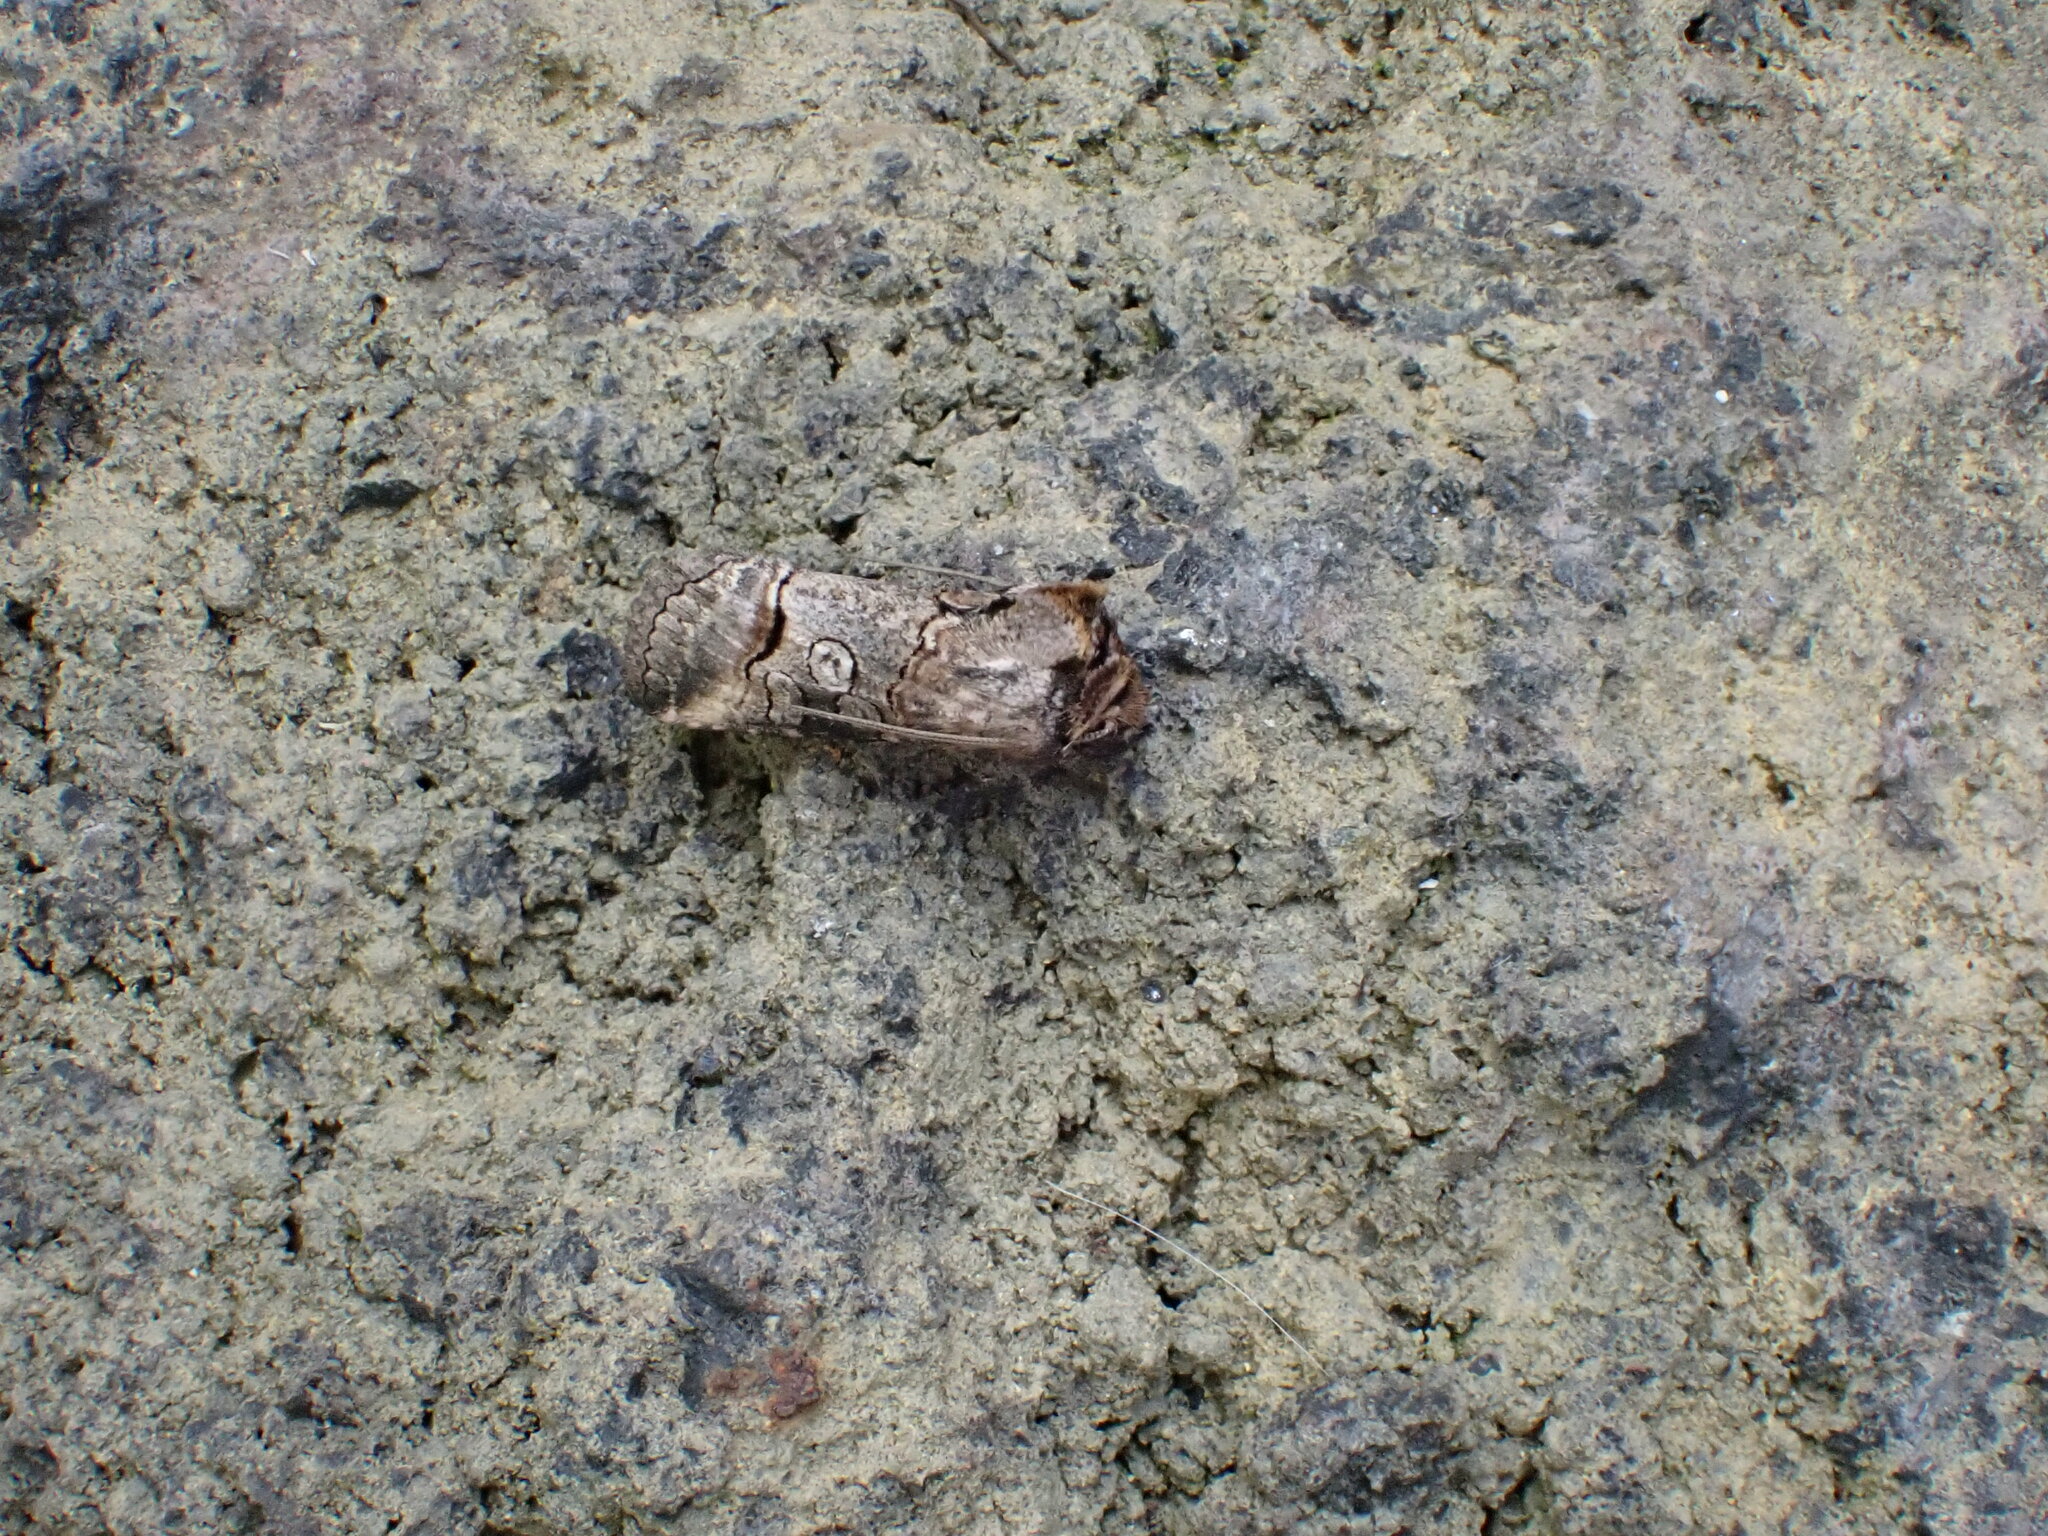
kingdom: Animalia
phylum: Arthropoda
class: Insecta
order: Lepidoptera
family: Noctuidae
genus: Abrostola
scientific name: Abrostola canariensis
